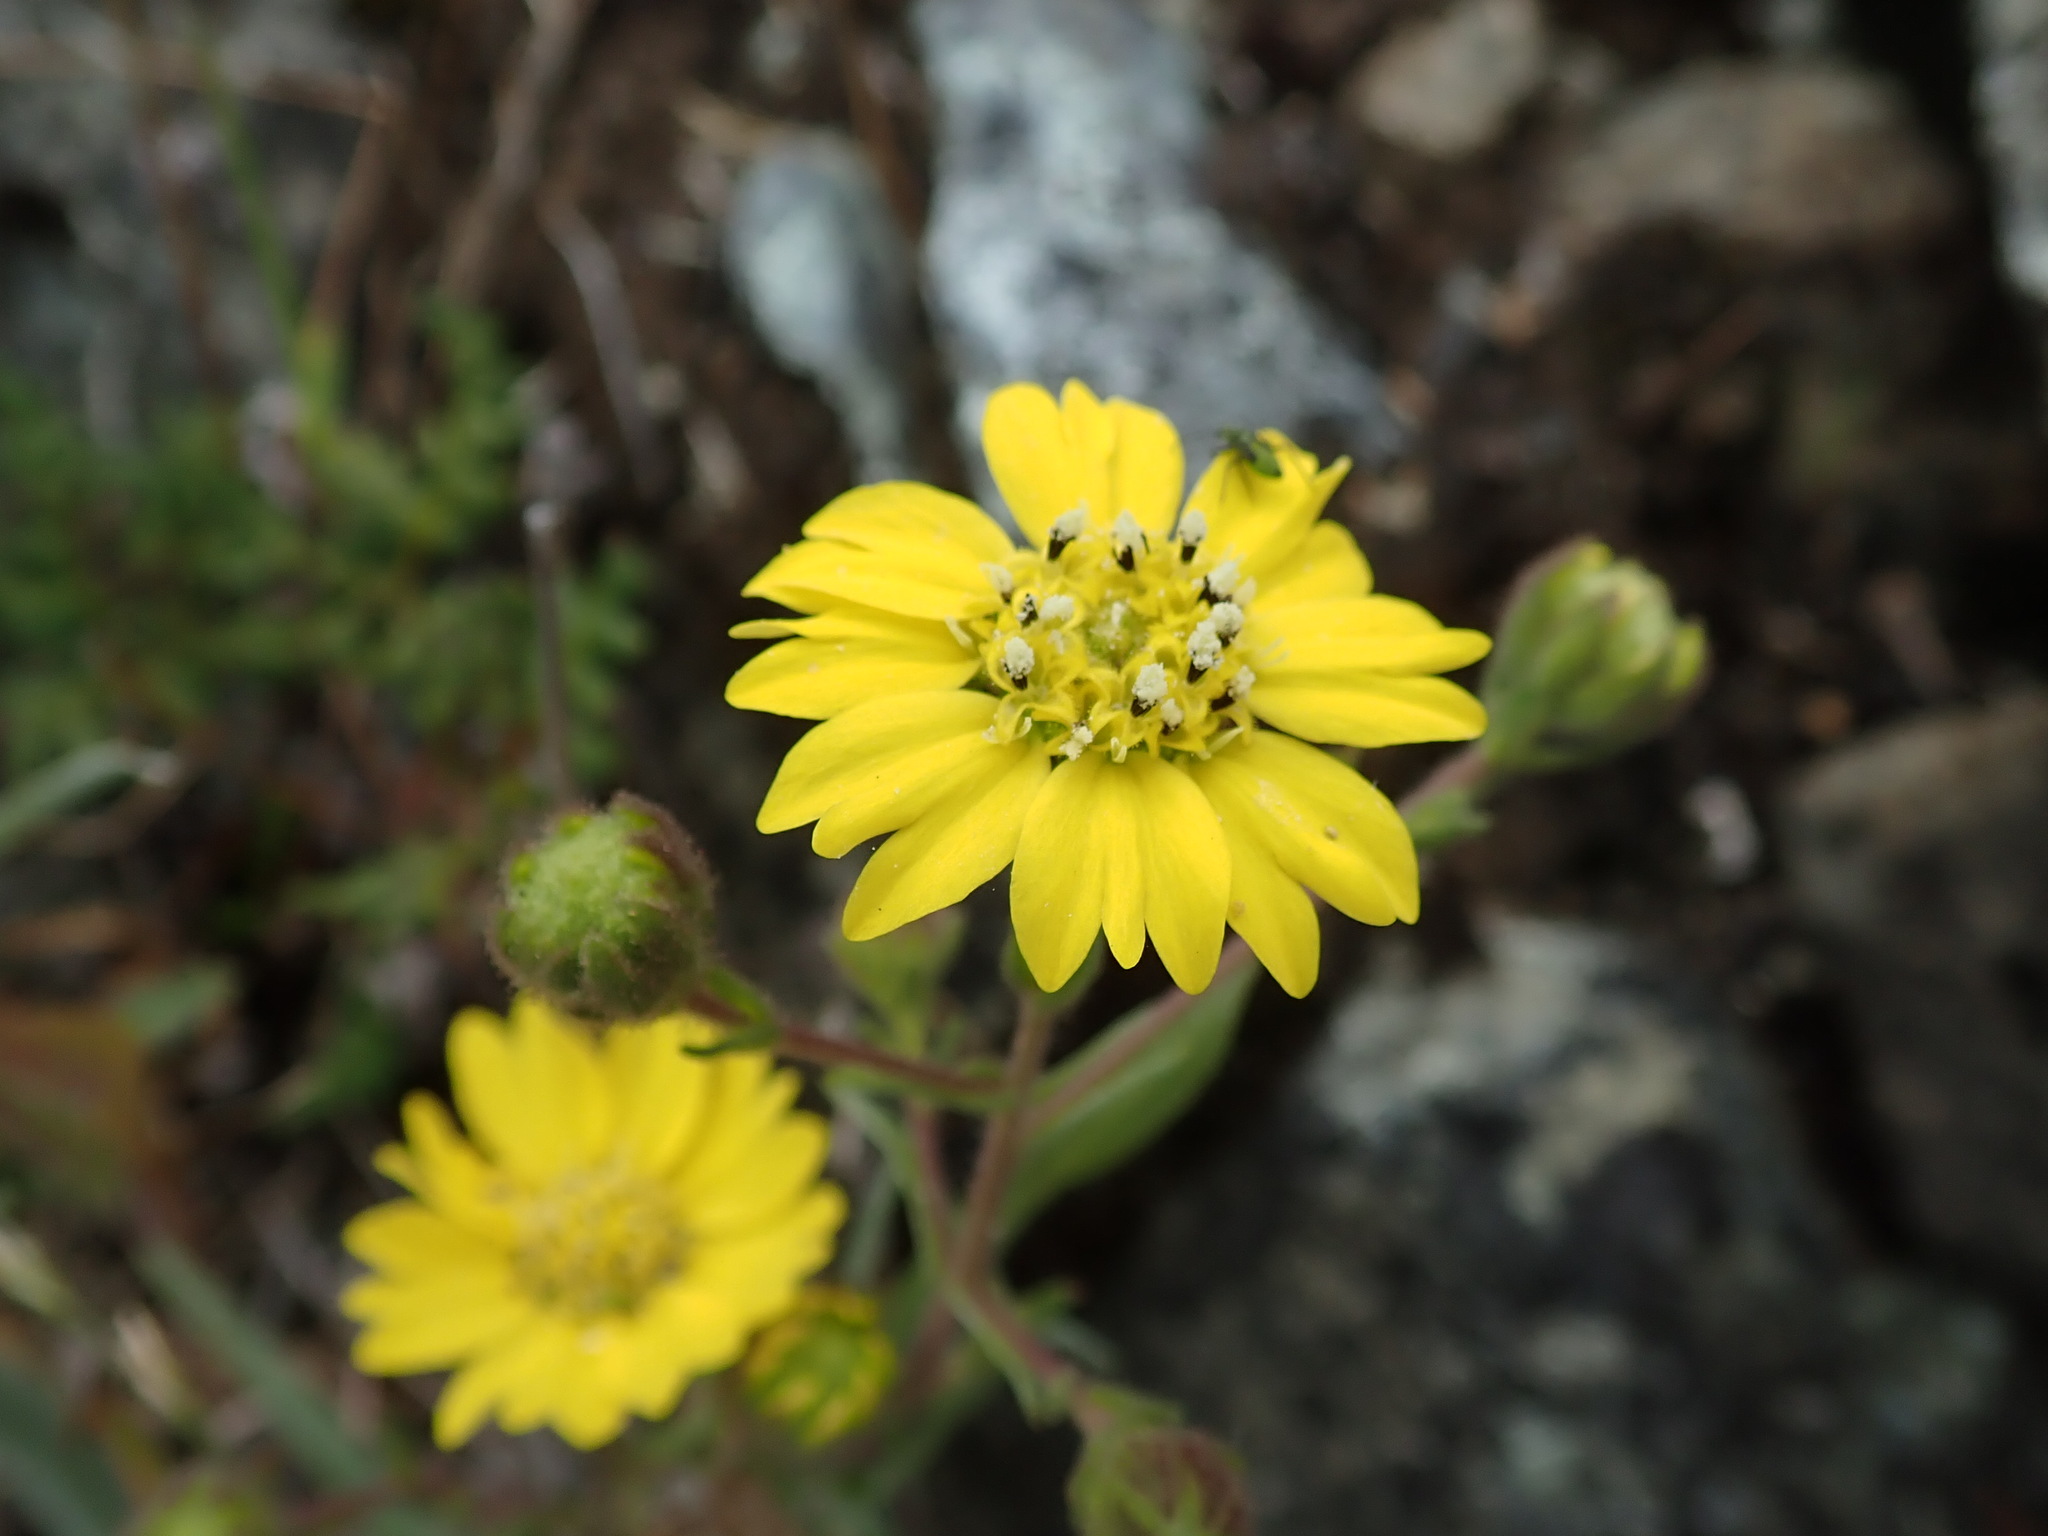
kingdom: Plantae
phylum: Tracheophyta
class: Magnoliopsida
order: Asterales
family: Asteraceae
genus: Hemizonia
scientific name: Hemizonia congesta
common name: Hayfield tarweed
